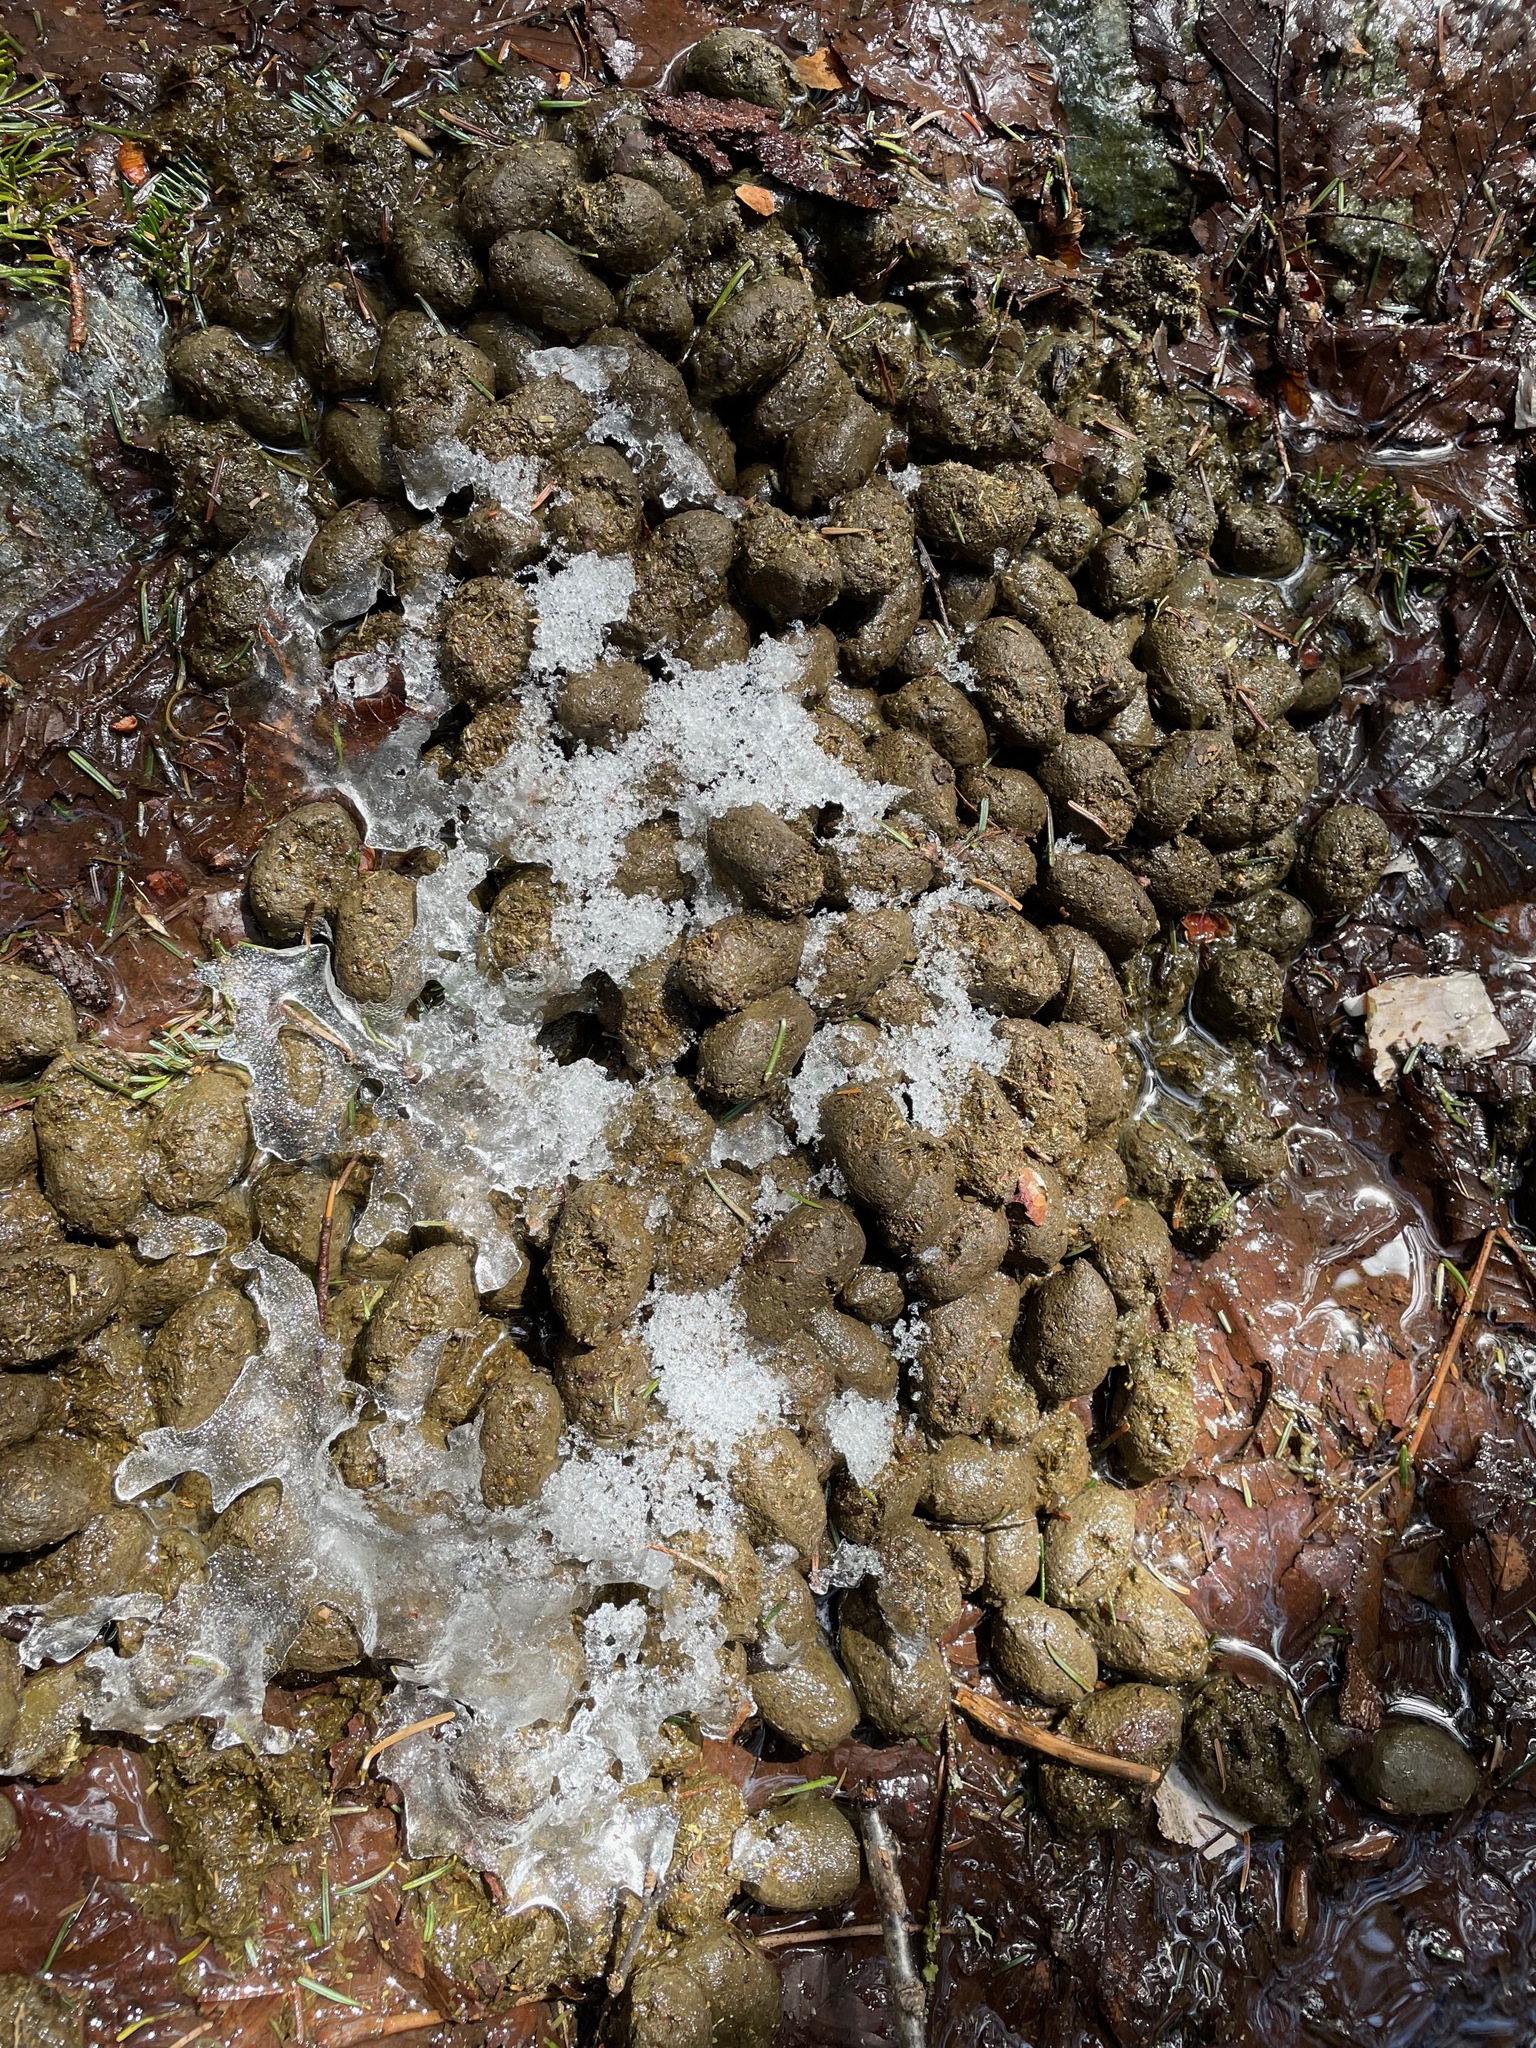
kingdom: Animalia
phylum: Chordata
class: Mammalia
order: Artiodactyla
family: Cervidae
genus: Alces
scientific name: Alces alces
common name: Moose
